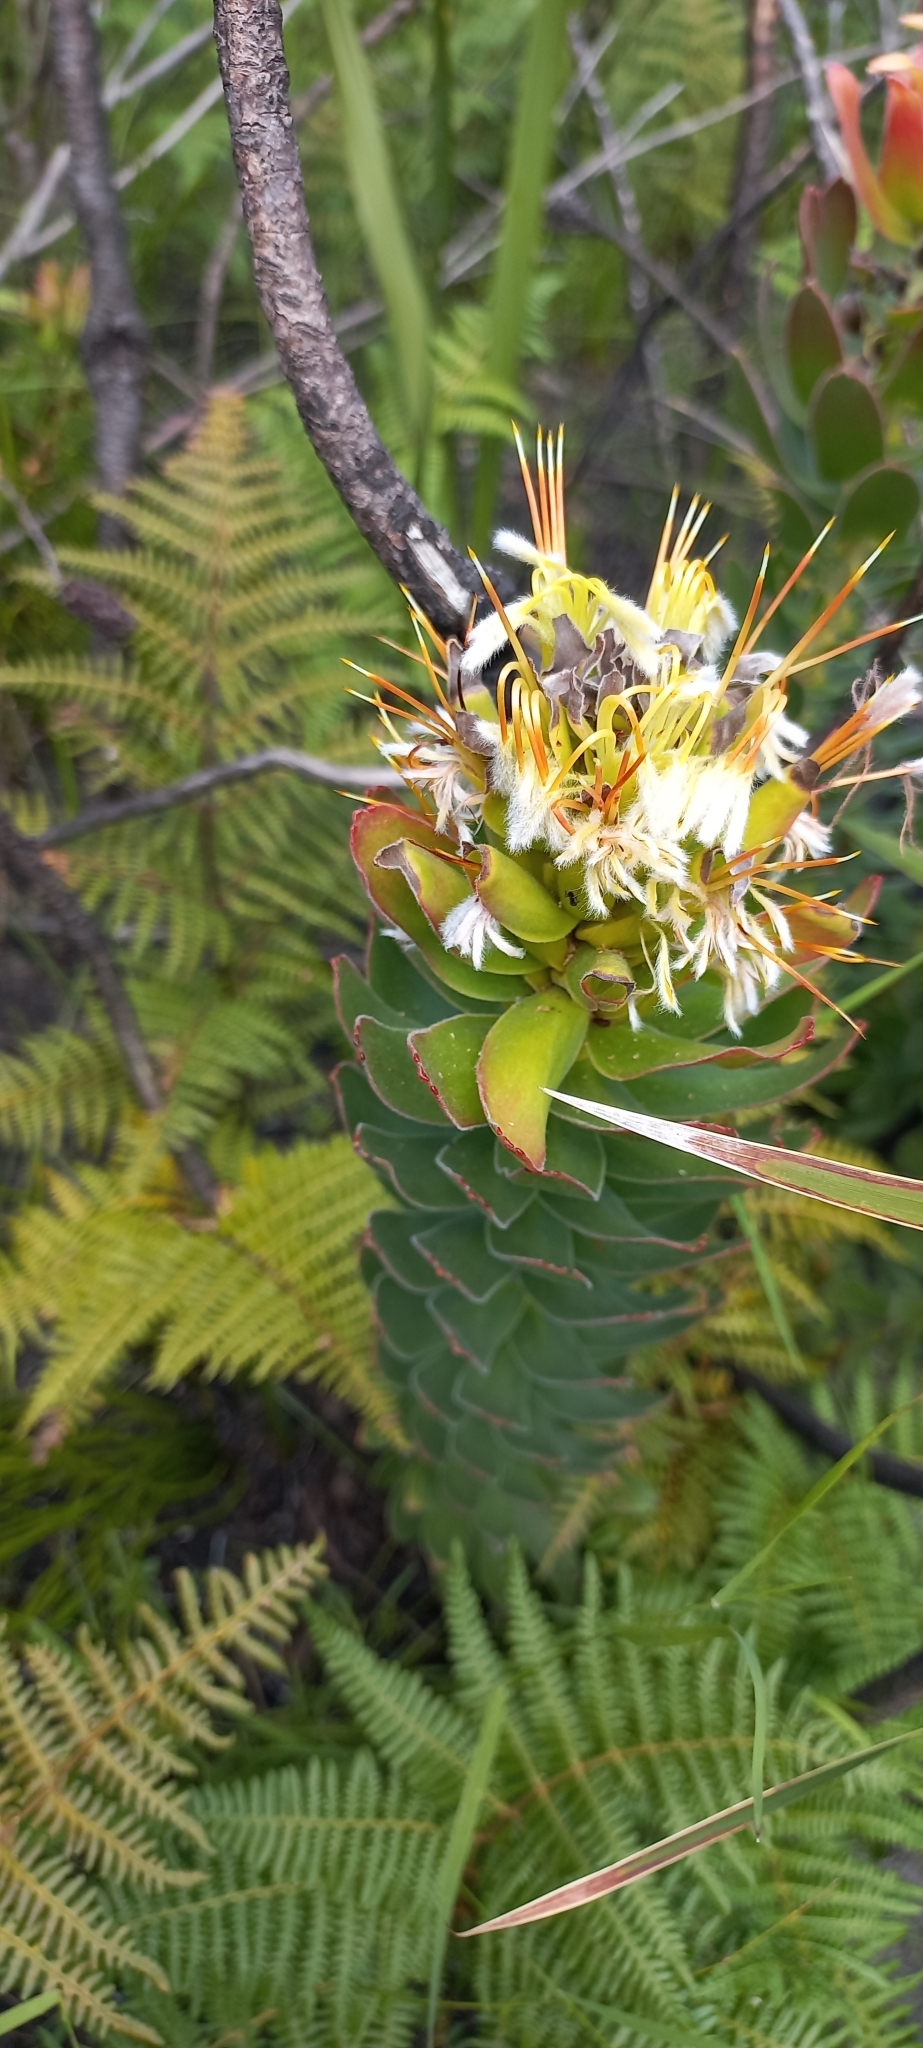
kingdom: Plantae
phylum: Tracheophyta
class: Magnoliopsida
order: Proteales
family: Proteaceae
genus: Mimetes
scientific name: Mimetes cucullatus
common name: Common pagoda
